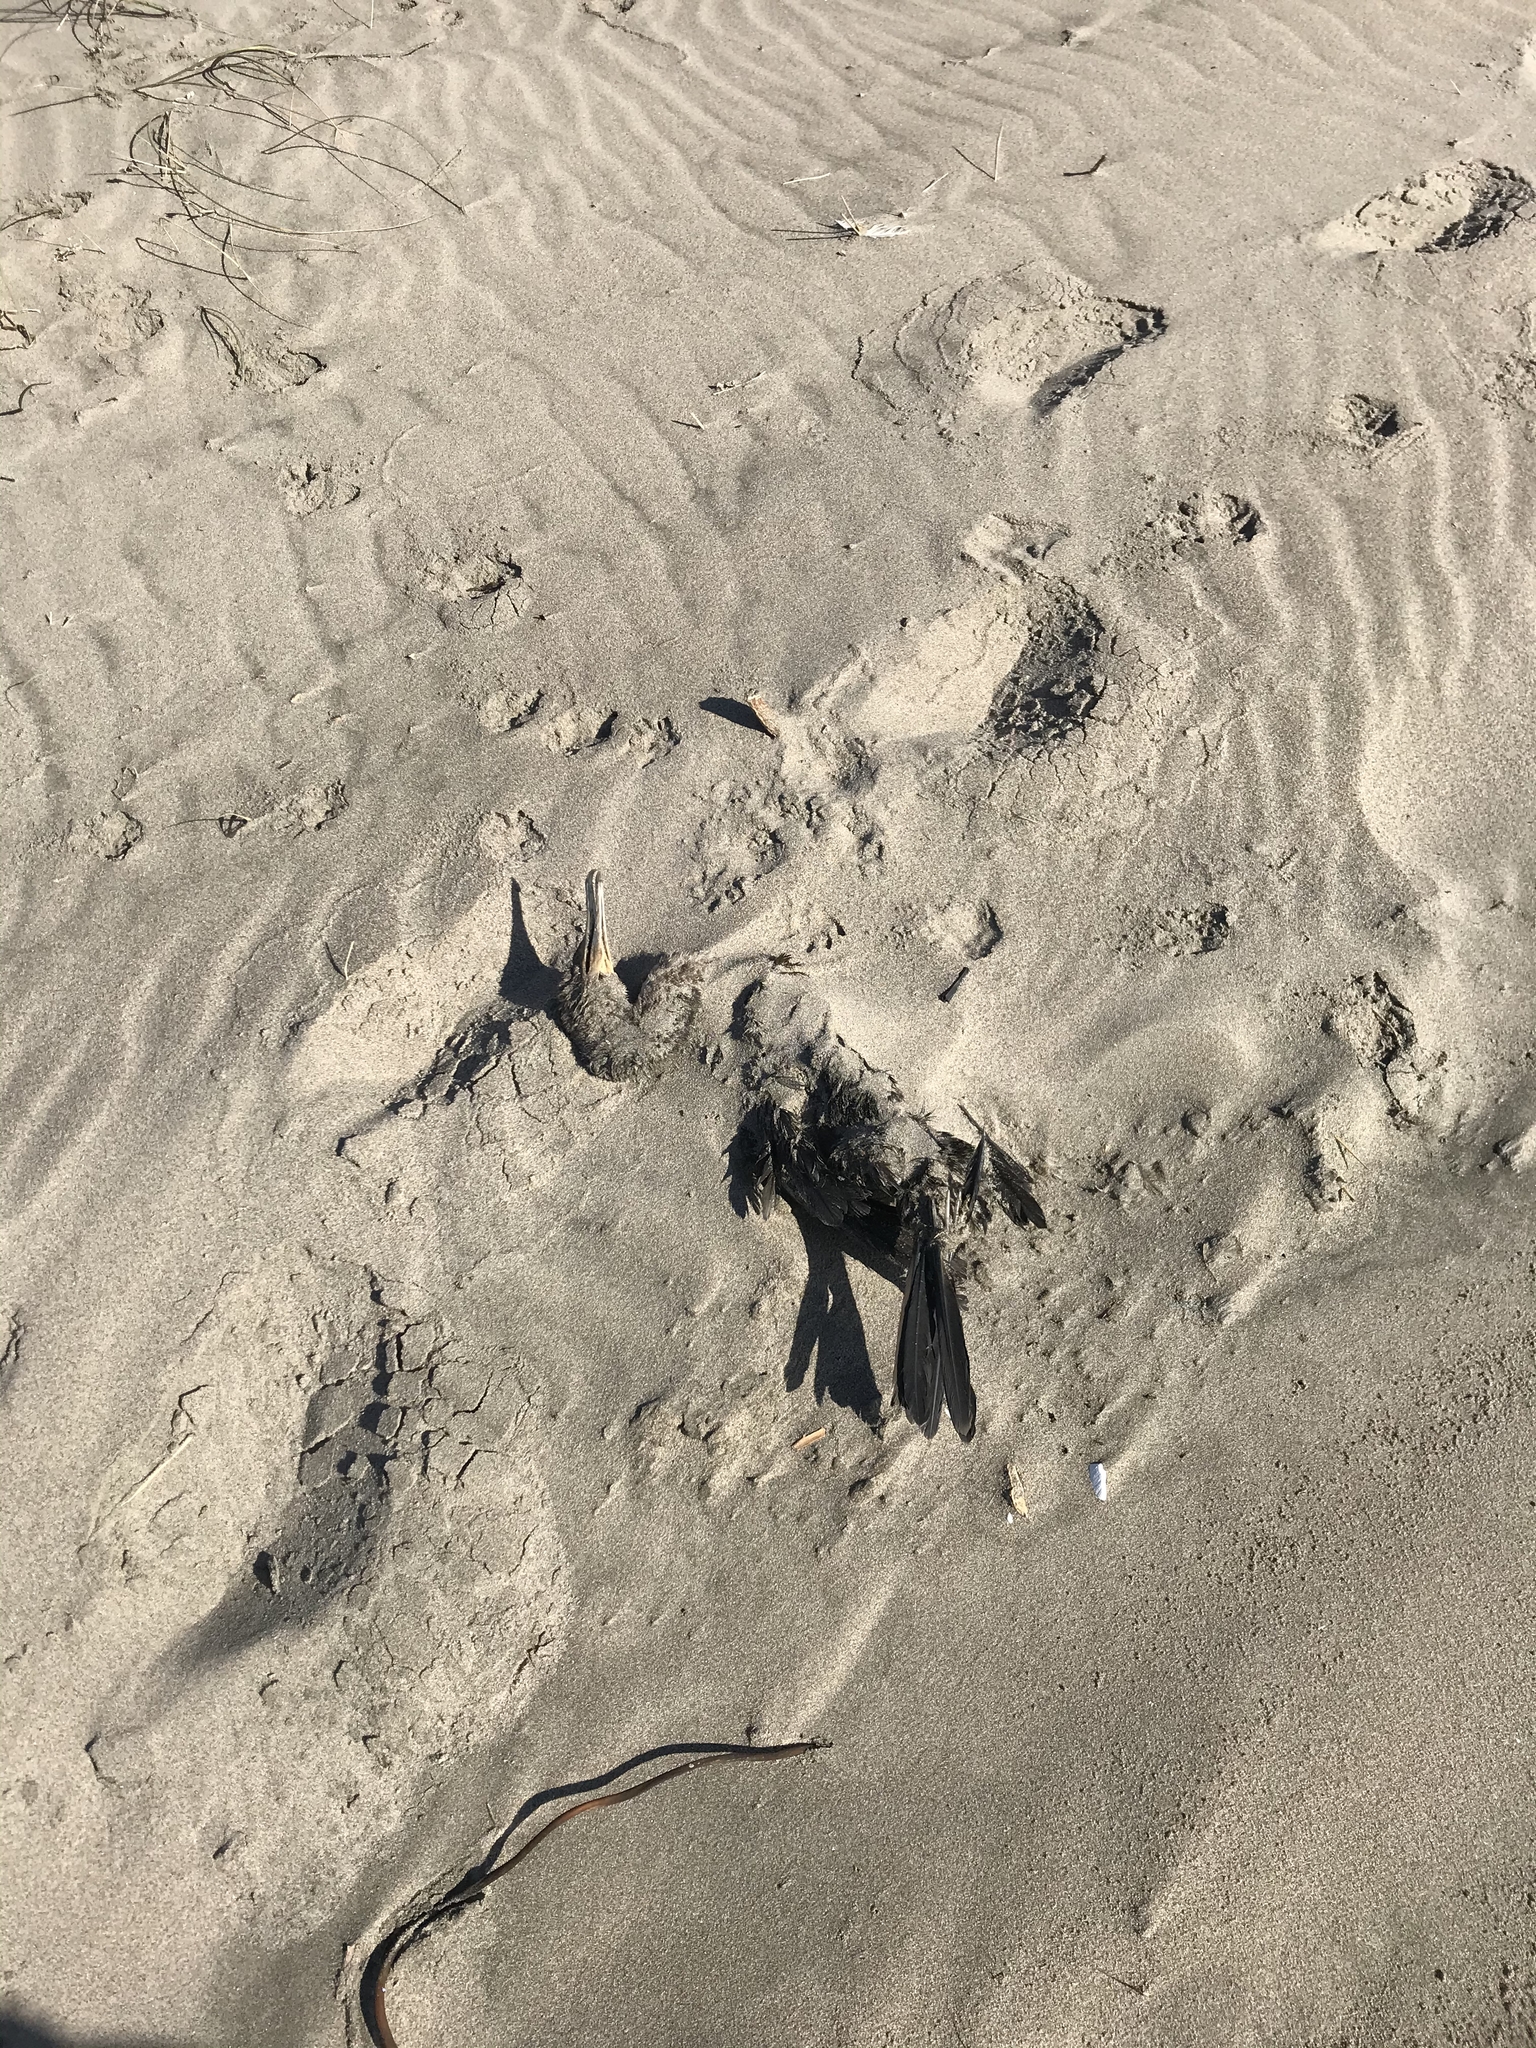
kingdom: Animalia
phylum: Chordata
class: Aves
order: Suliformes
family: Phalacrocoracidae
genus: Phalacrocorax
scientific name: Phalacrocorax auritus
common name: Double-crested cormorant
